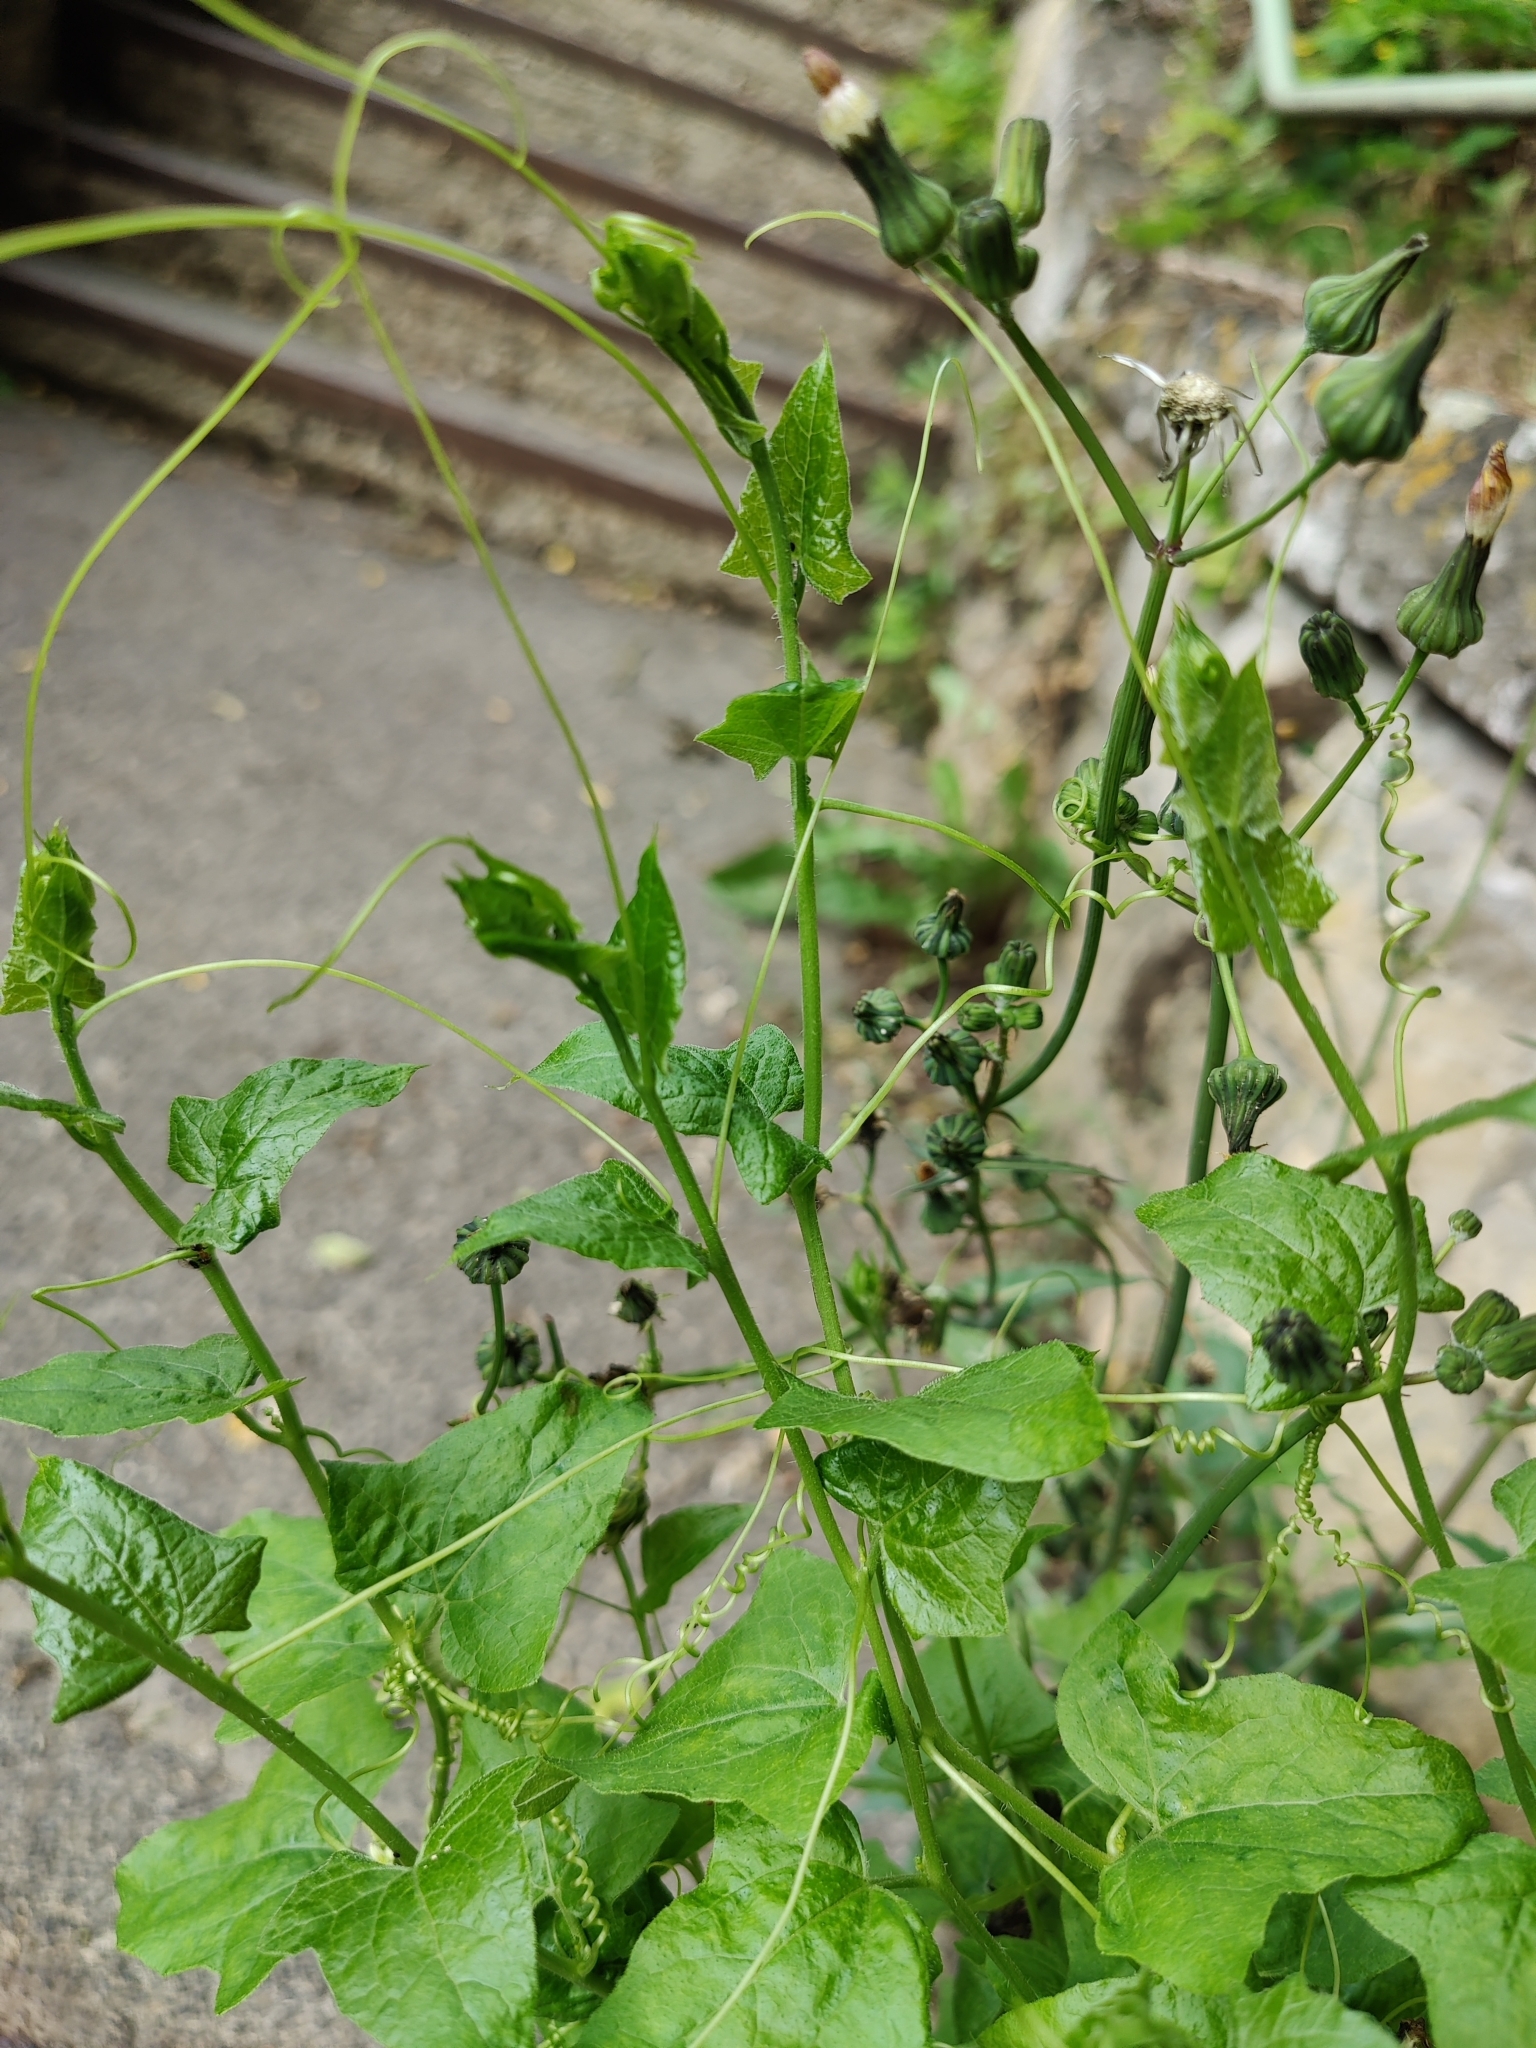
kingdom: Plantae
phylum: Tracheophyta
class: Magnoliopsida
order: Cucurbitales
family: Cucurbitaceae
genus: Bryonia
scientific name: Bryonia cretica
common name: Cretan bryony
